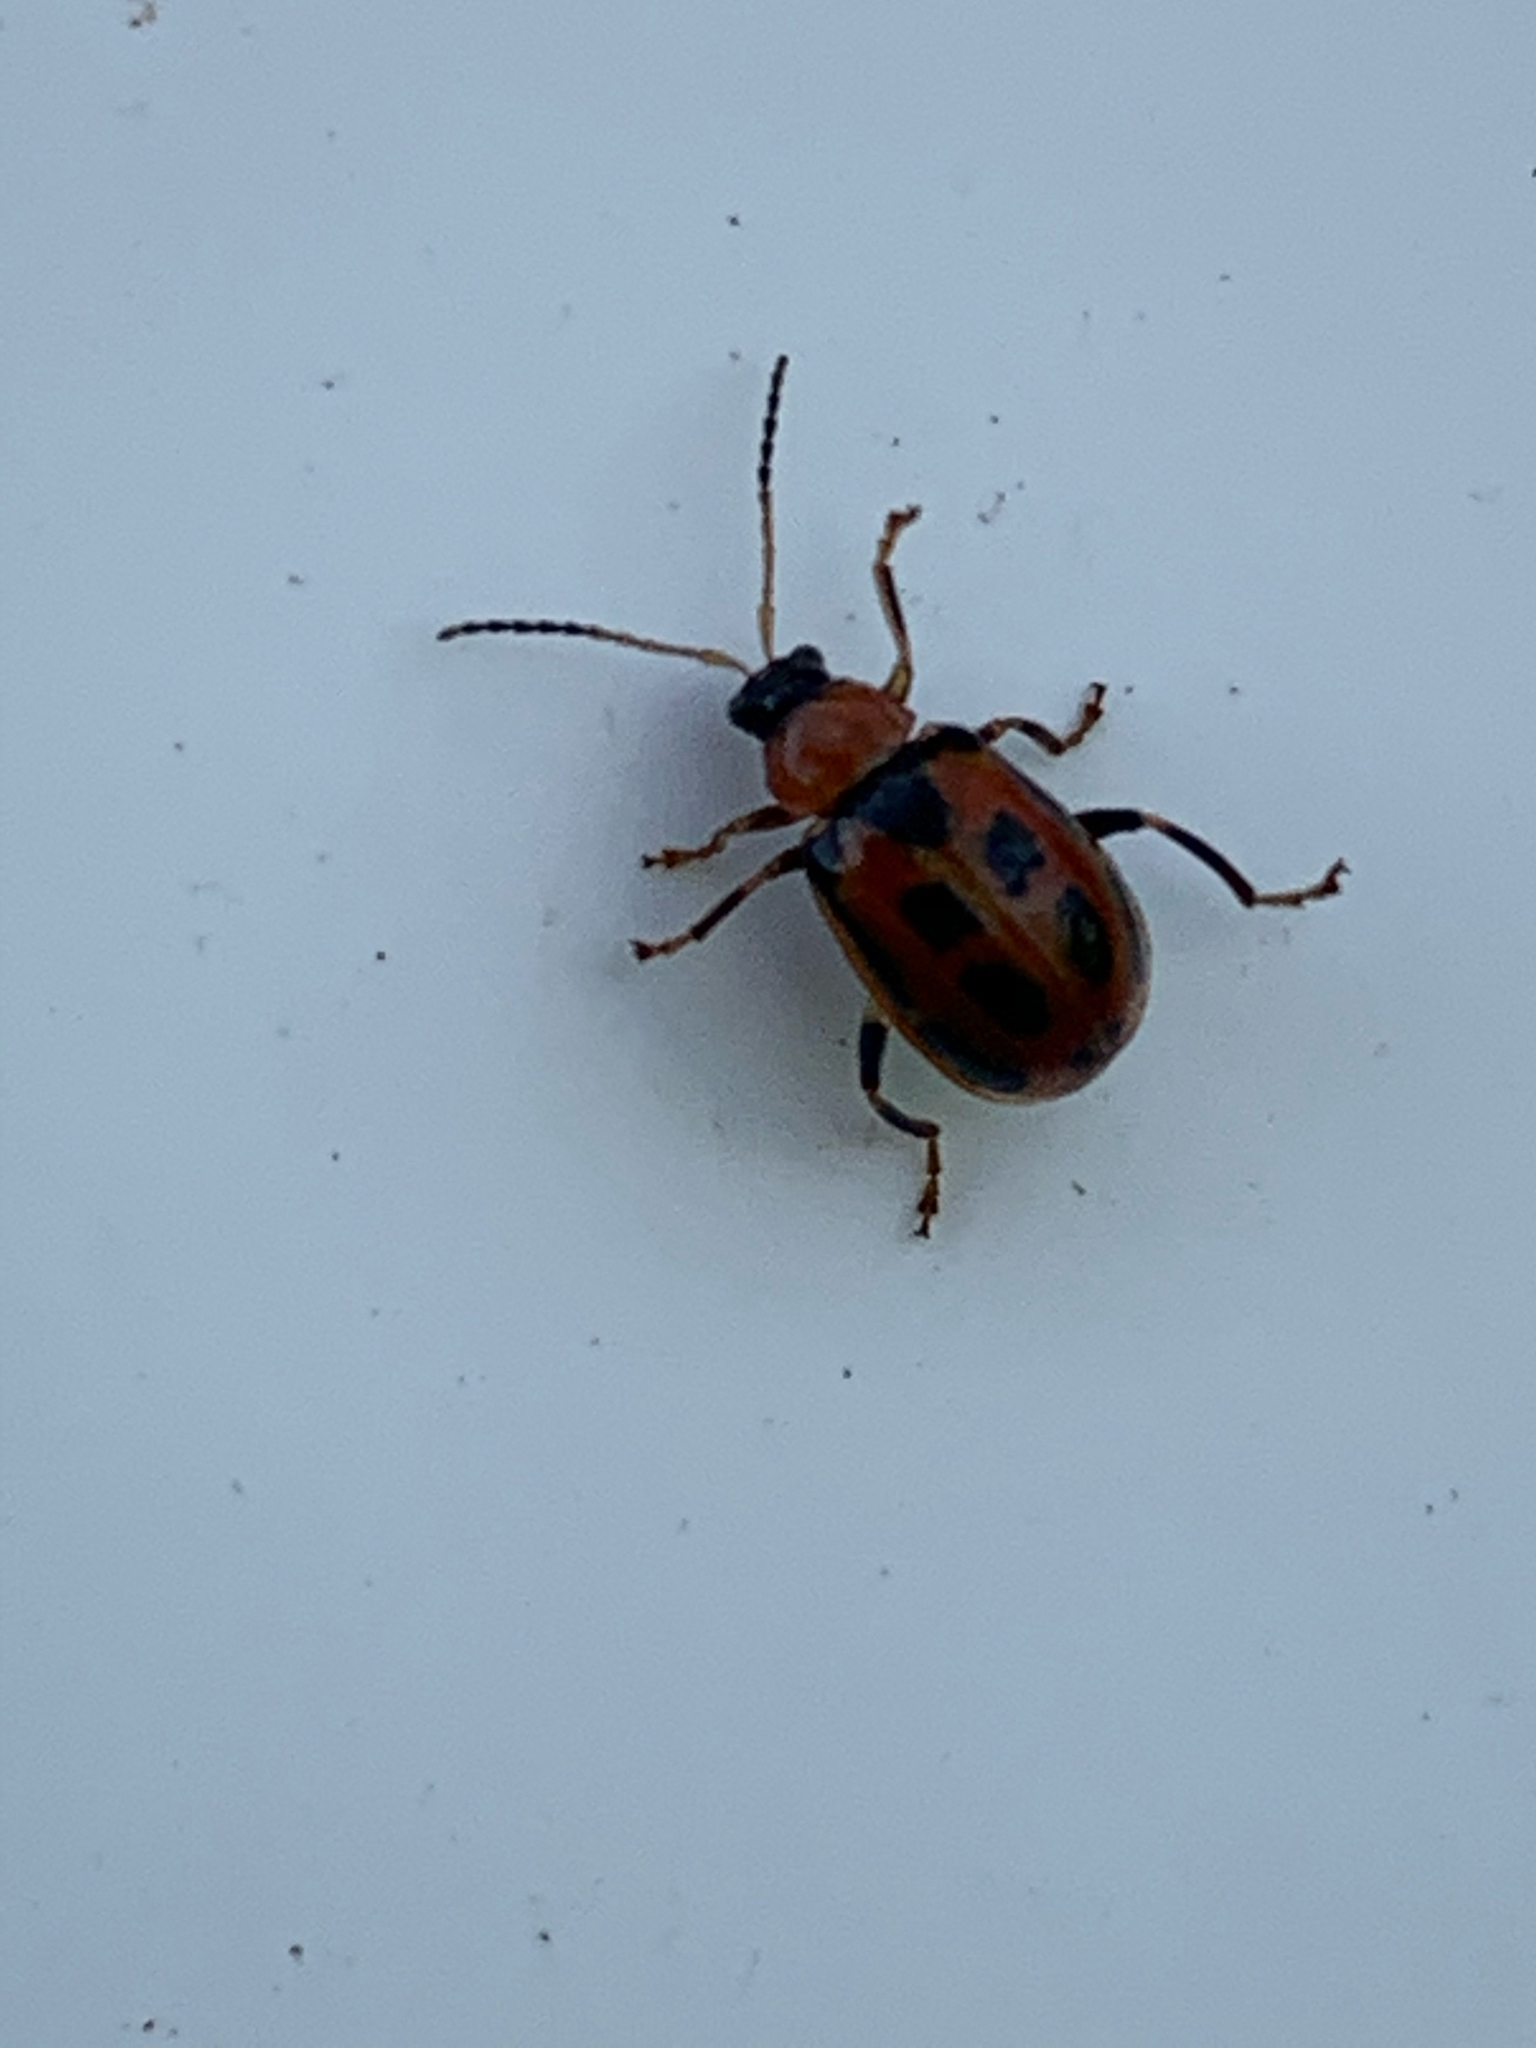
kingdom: Animalia
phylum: Arthropoda
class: Insecta
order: Coleoptera
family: Chrysomelidae
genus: Cerotoma
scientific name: Cerotoma trifurcata
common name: Bean leaf beetle
